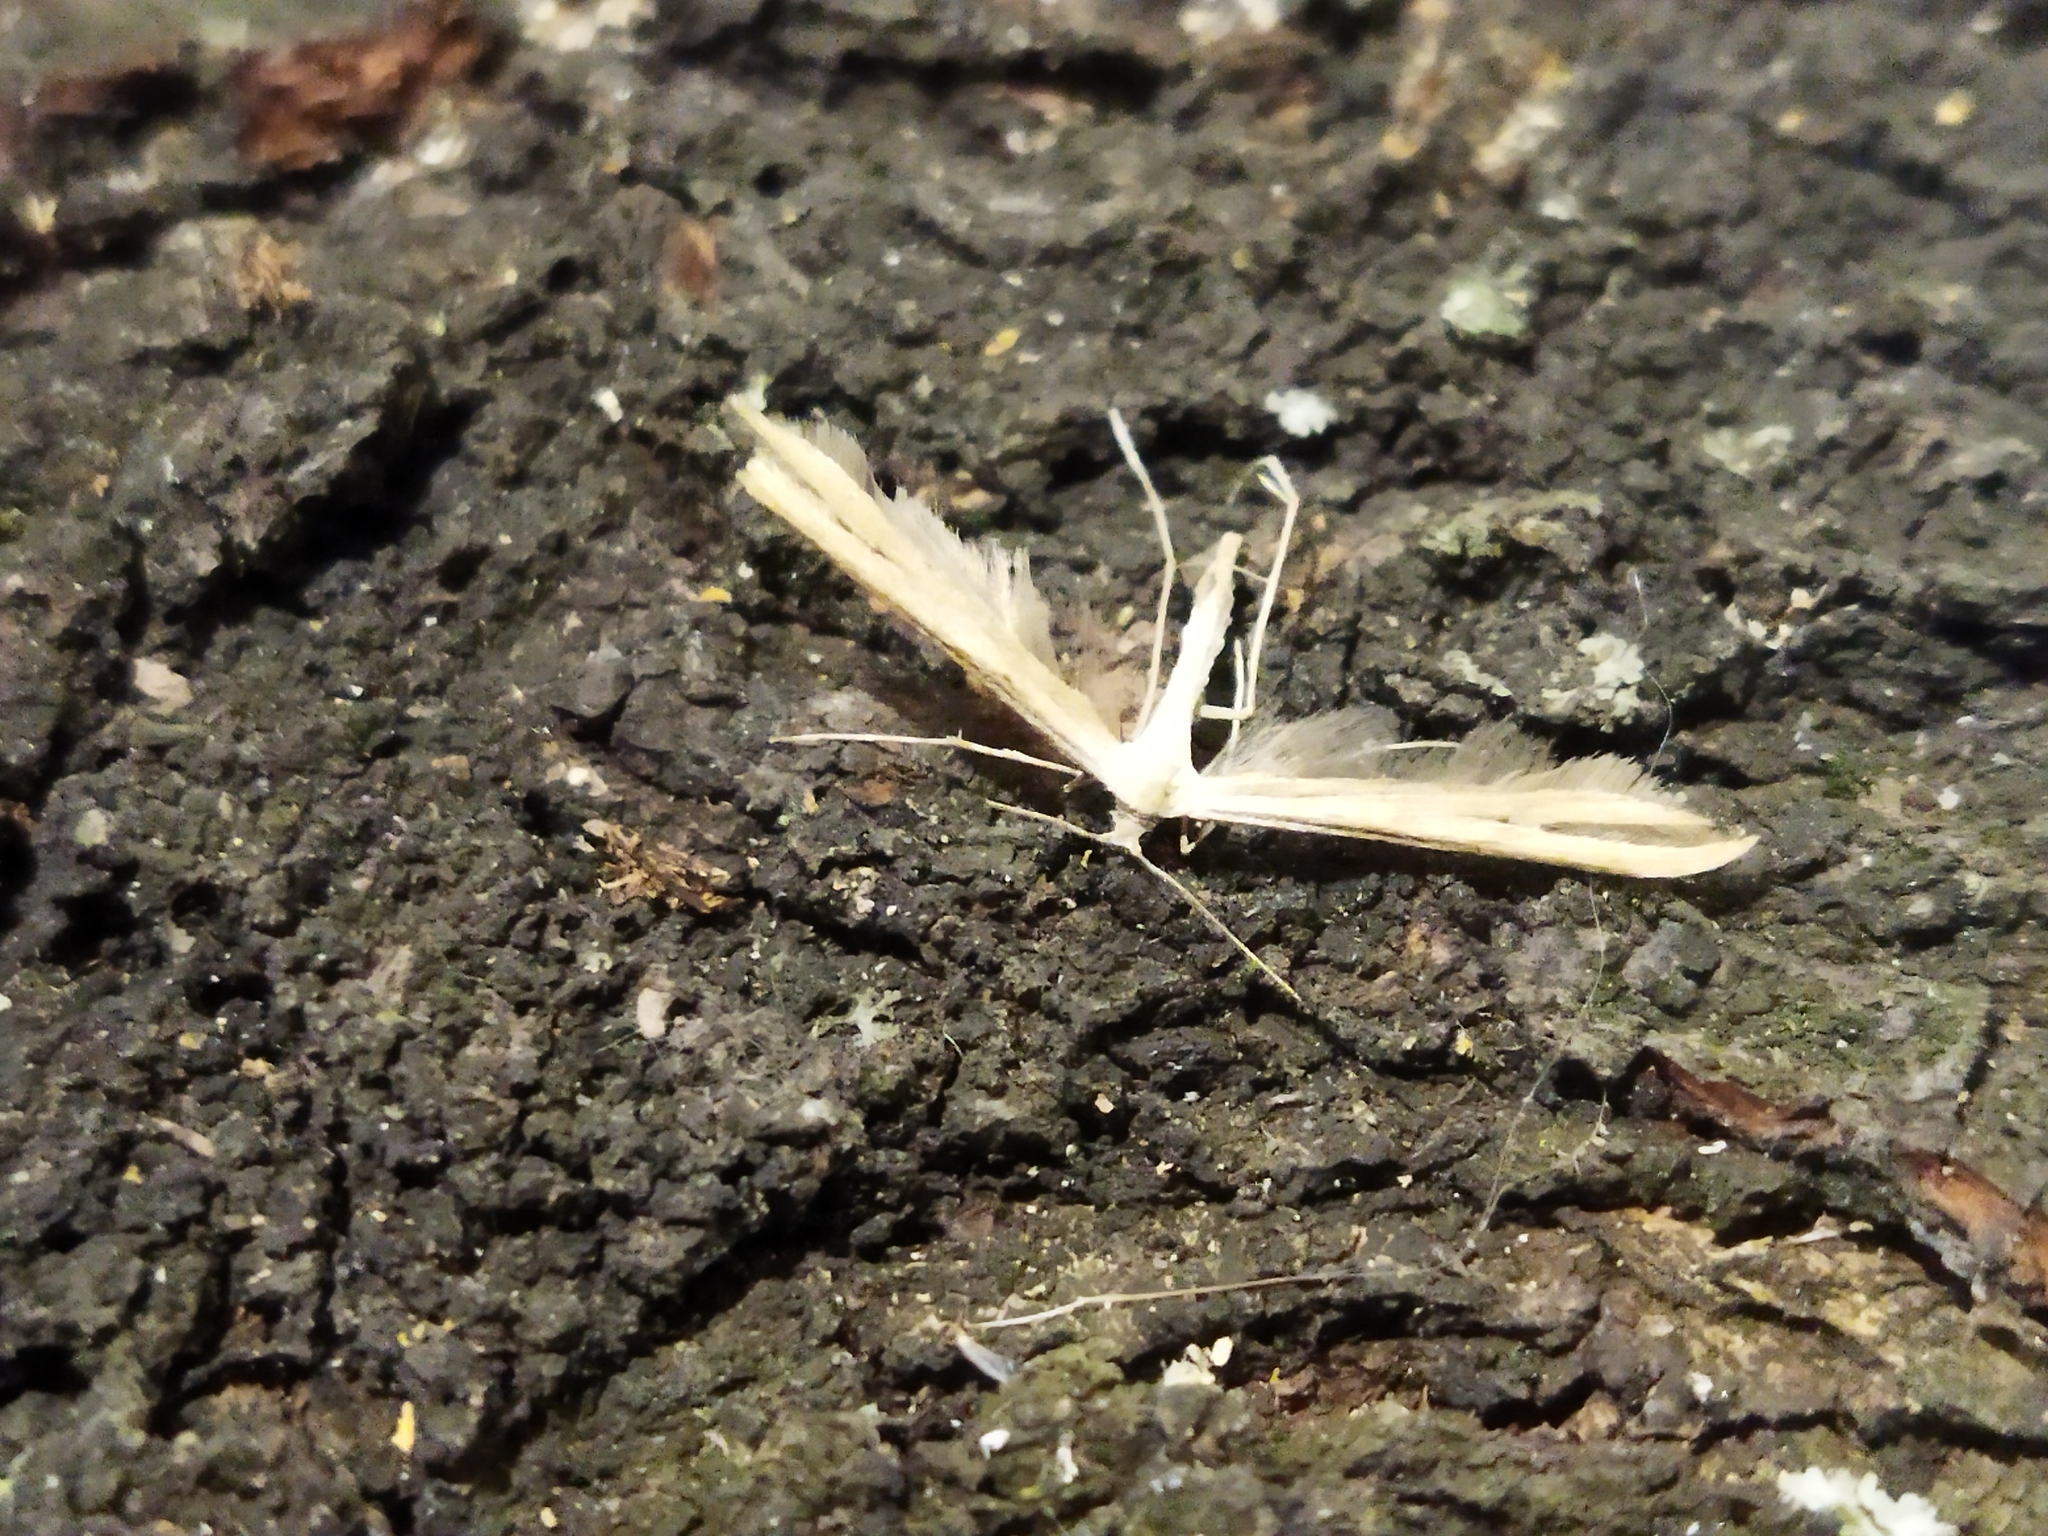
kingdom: Animalia
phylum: Arthropoda
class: Insecta
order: Lepidoptera
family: Pterophoridae
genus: Adaina
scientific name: Adaina microdactyla
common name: Hemp-agrimony plume
